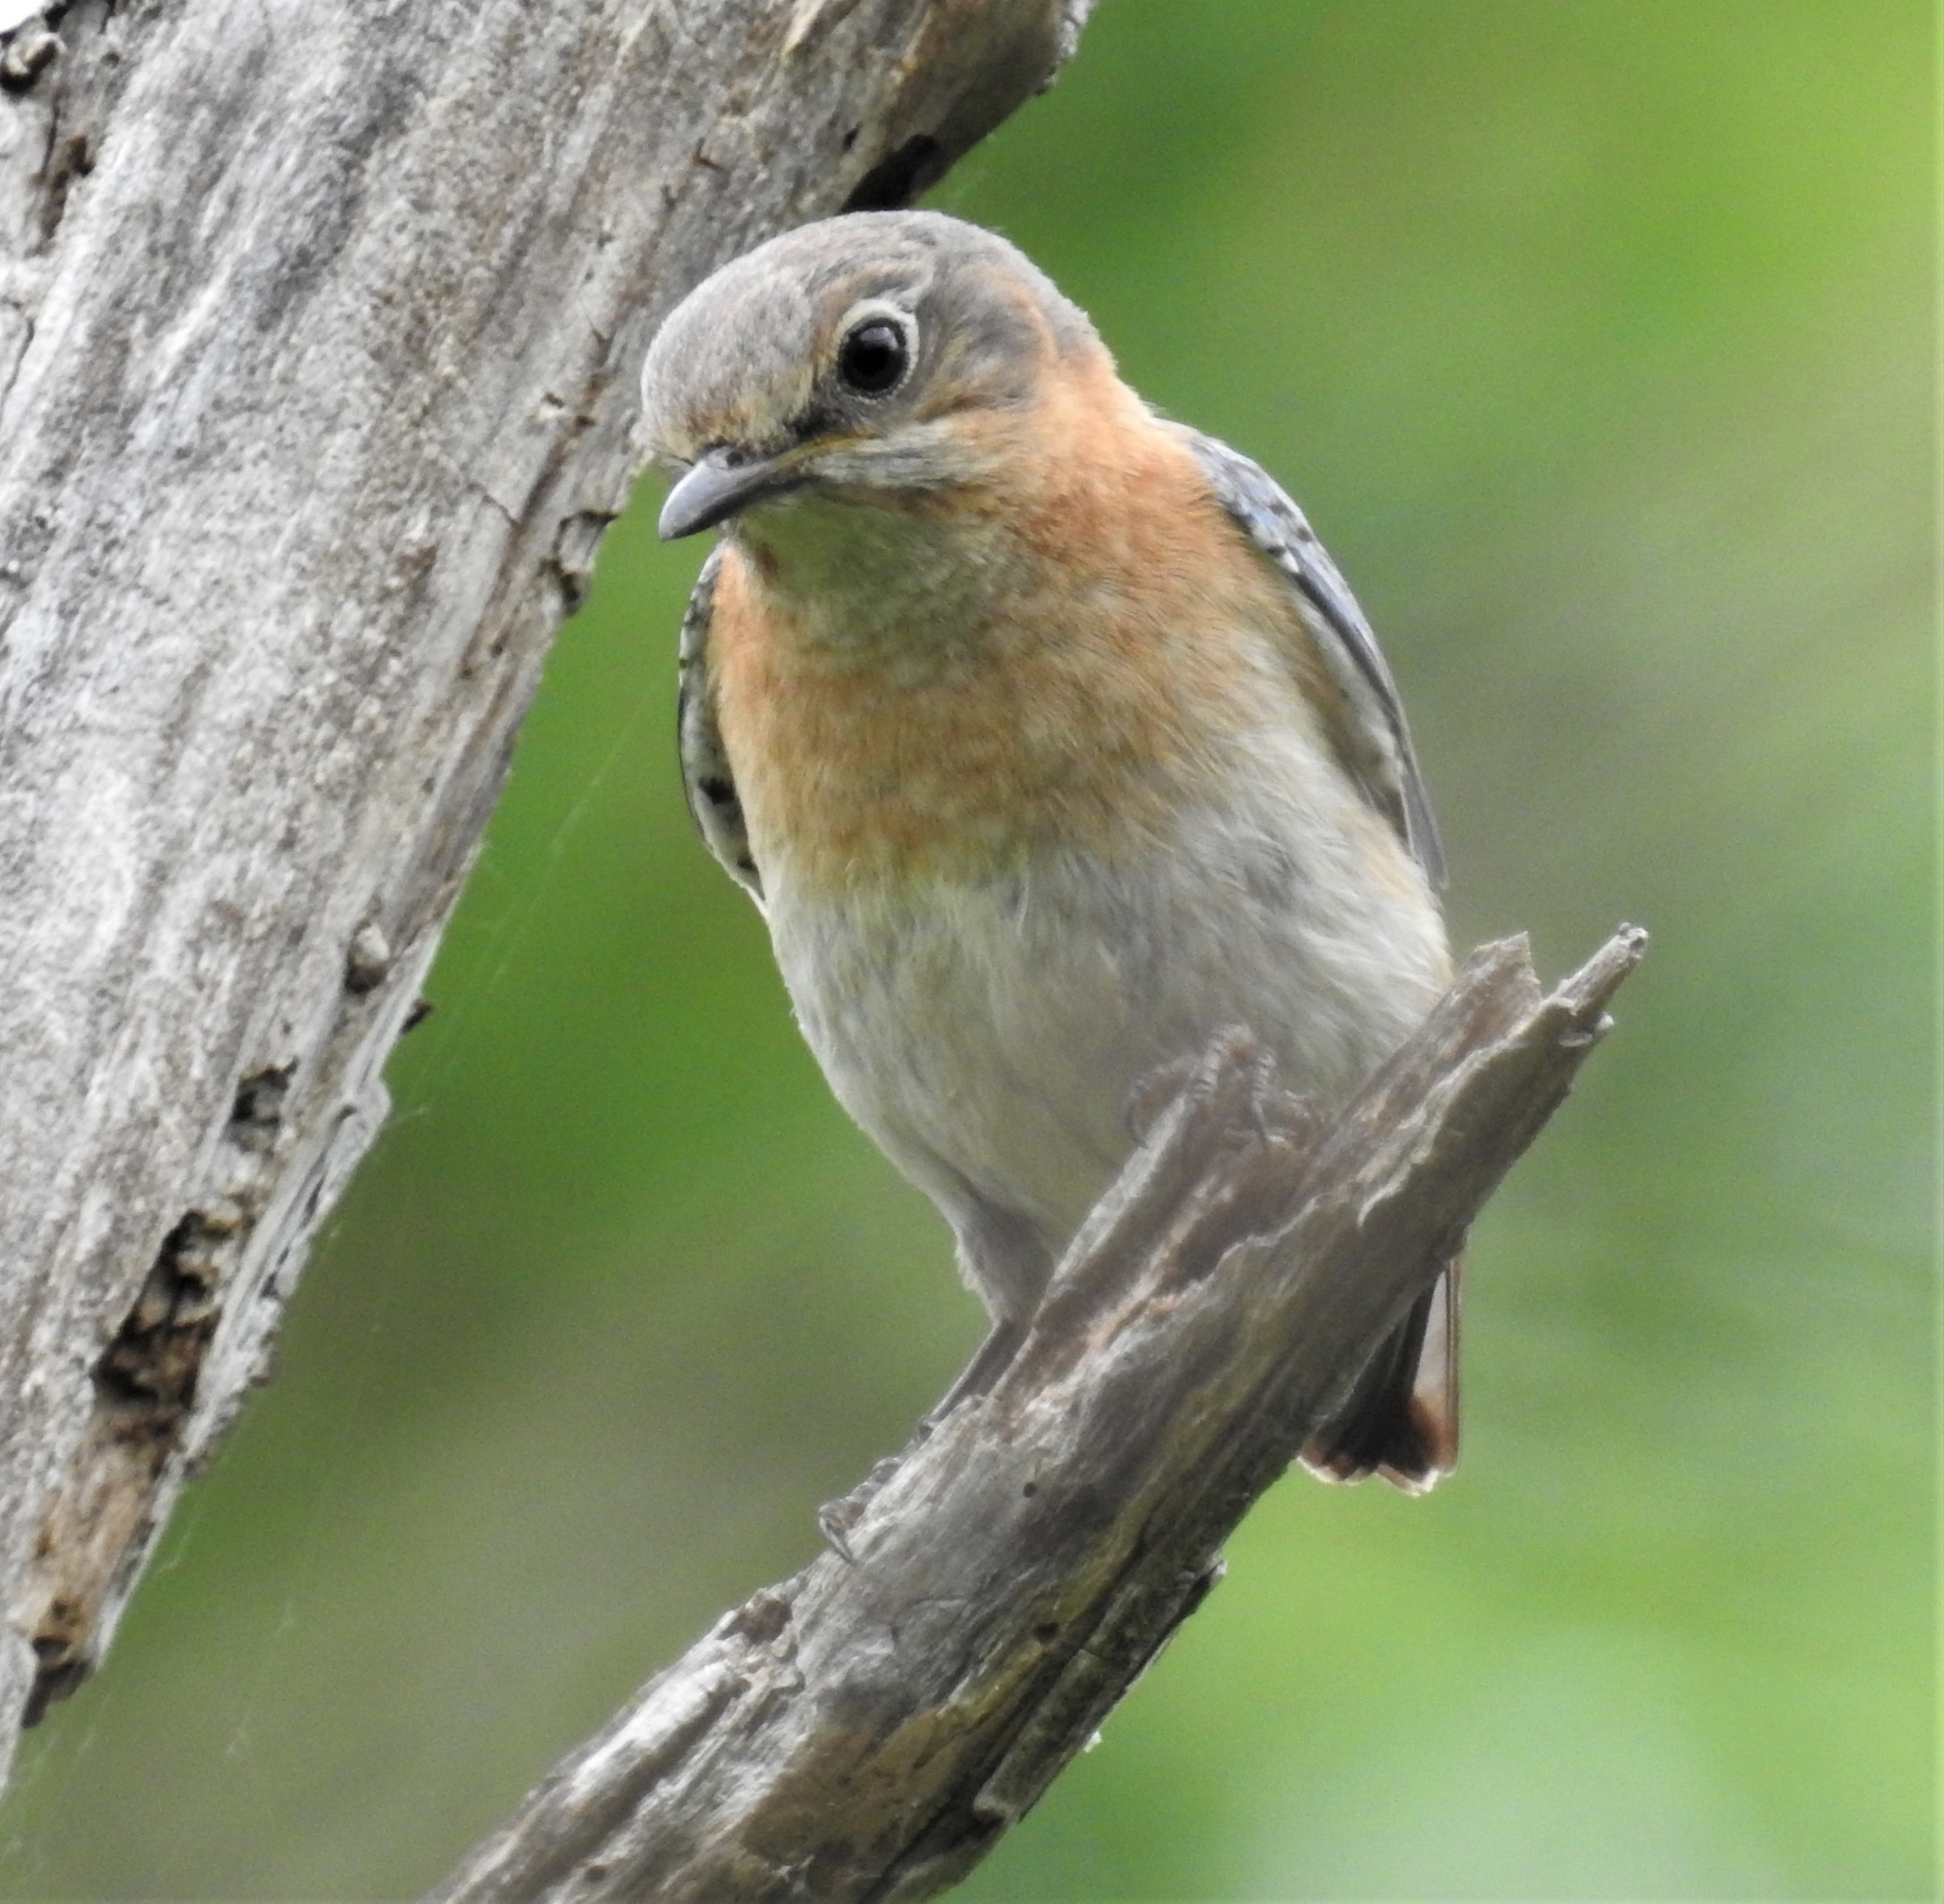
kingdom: Animalia
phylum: Chordata
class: Aves
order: Passeriformes
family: Turdidae
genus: Sialia
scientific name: Sialia sialis
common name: Eastern bluebird
